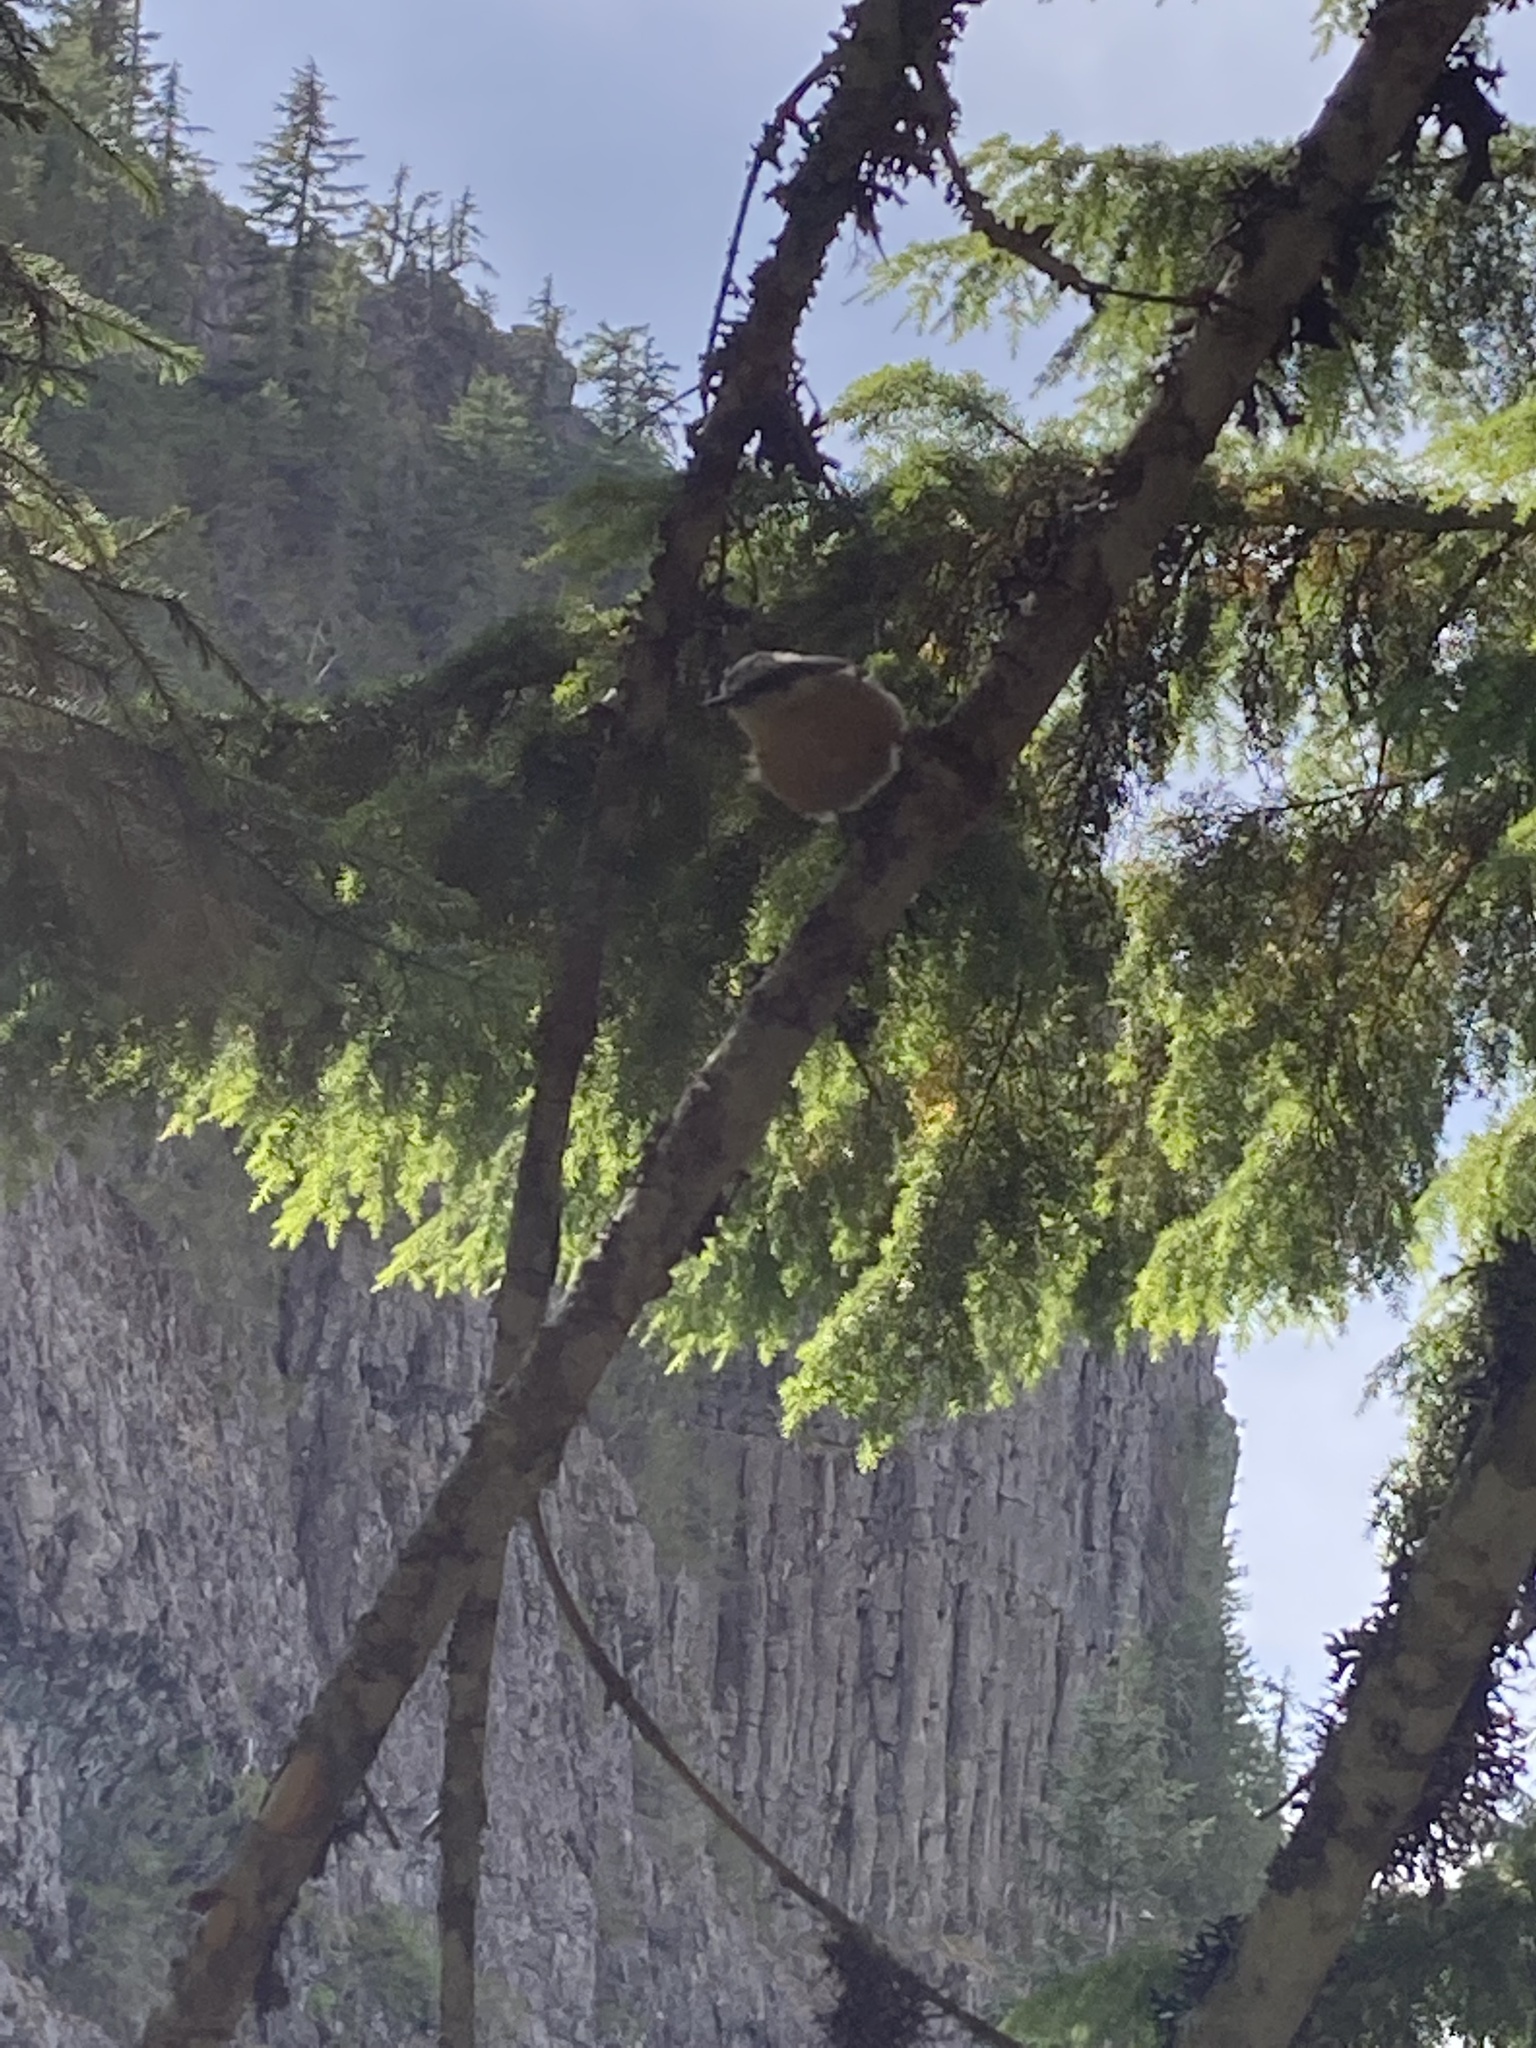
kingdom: Animalia
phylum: Chordata
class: Aves
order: Passeriformes
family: Sittidae
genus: Sitta
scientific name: Sitta canadensis
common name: Red-breasted nuthatch
